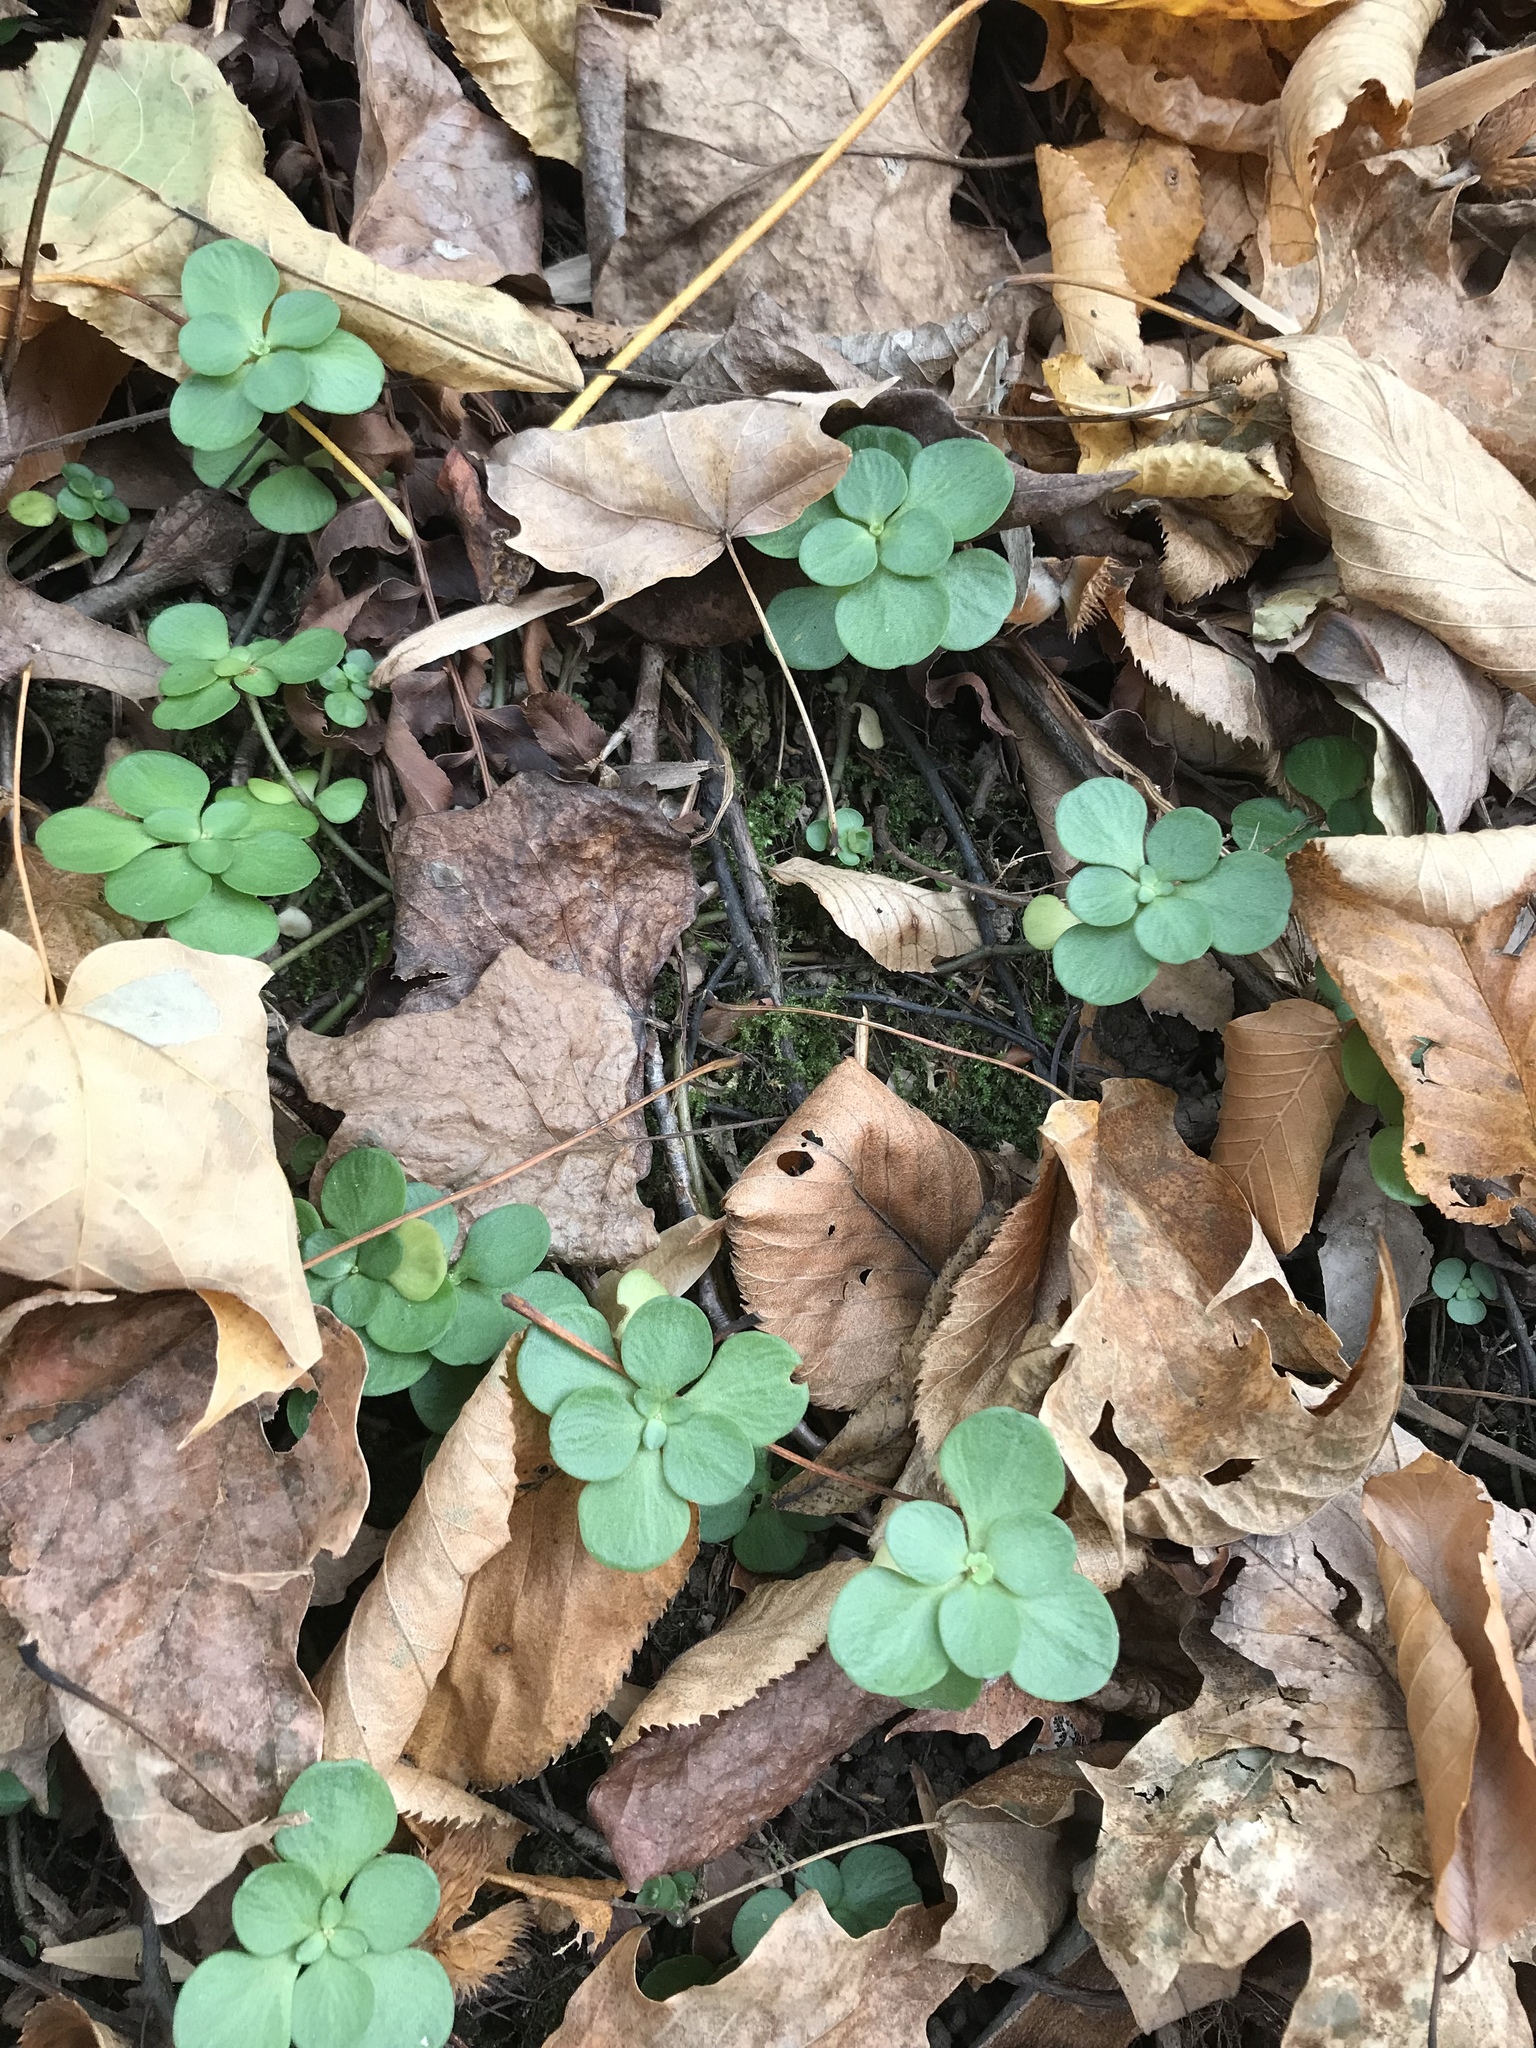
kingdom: Plantae
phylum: Tracheophyta
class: Magnoliopsida
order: Saxifragales
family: Crassulaceae
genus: Sedum
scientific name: Sedum ternatum
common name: Wild stonecrop
